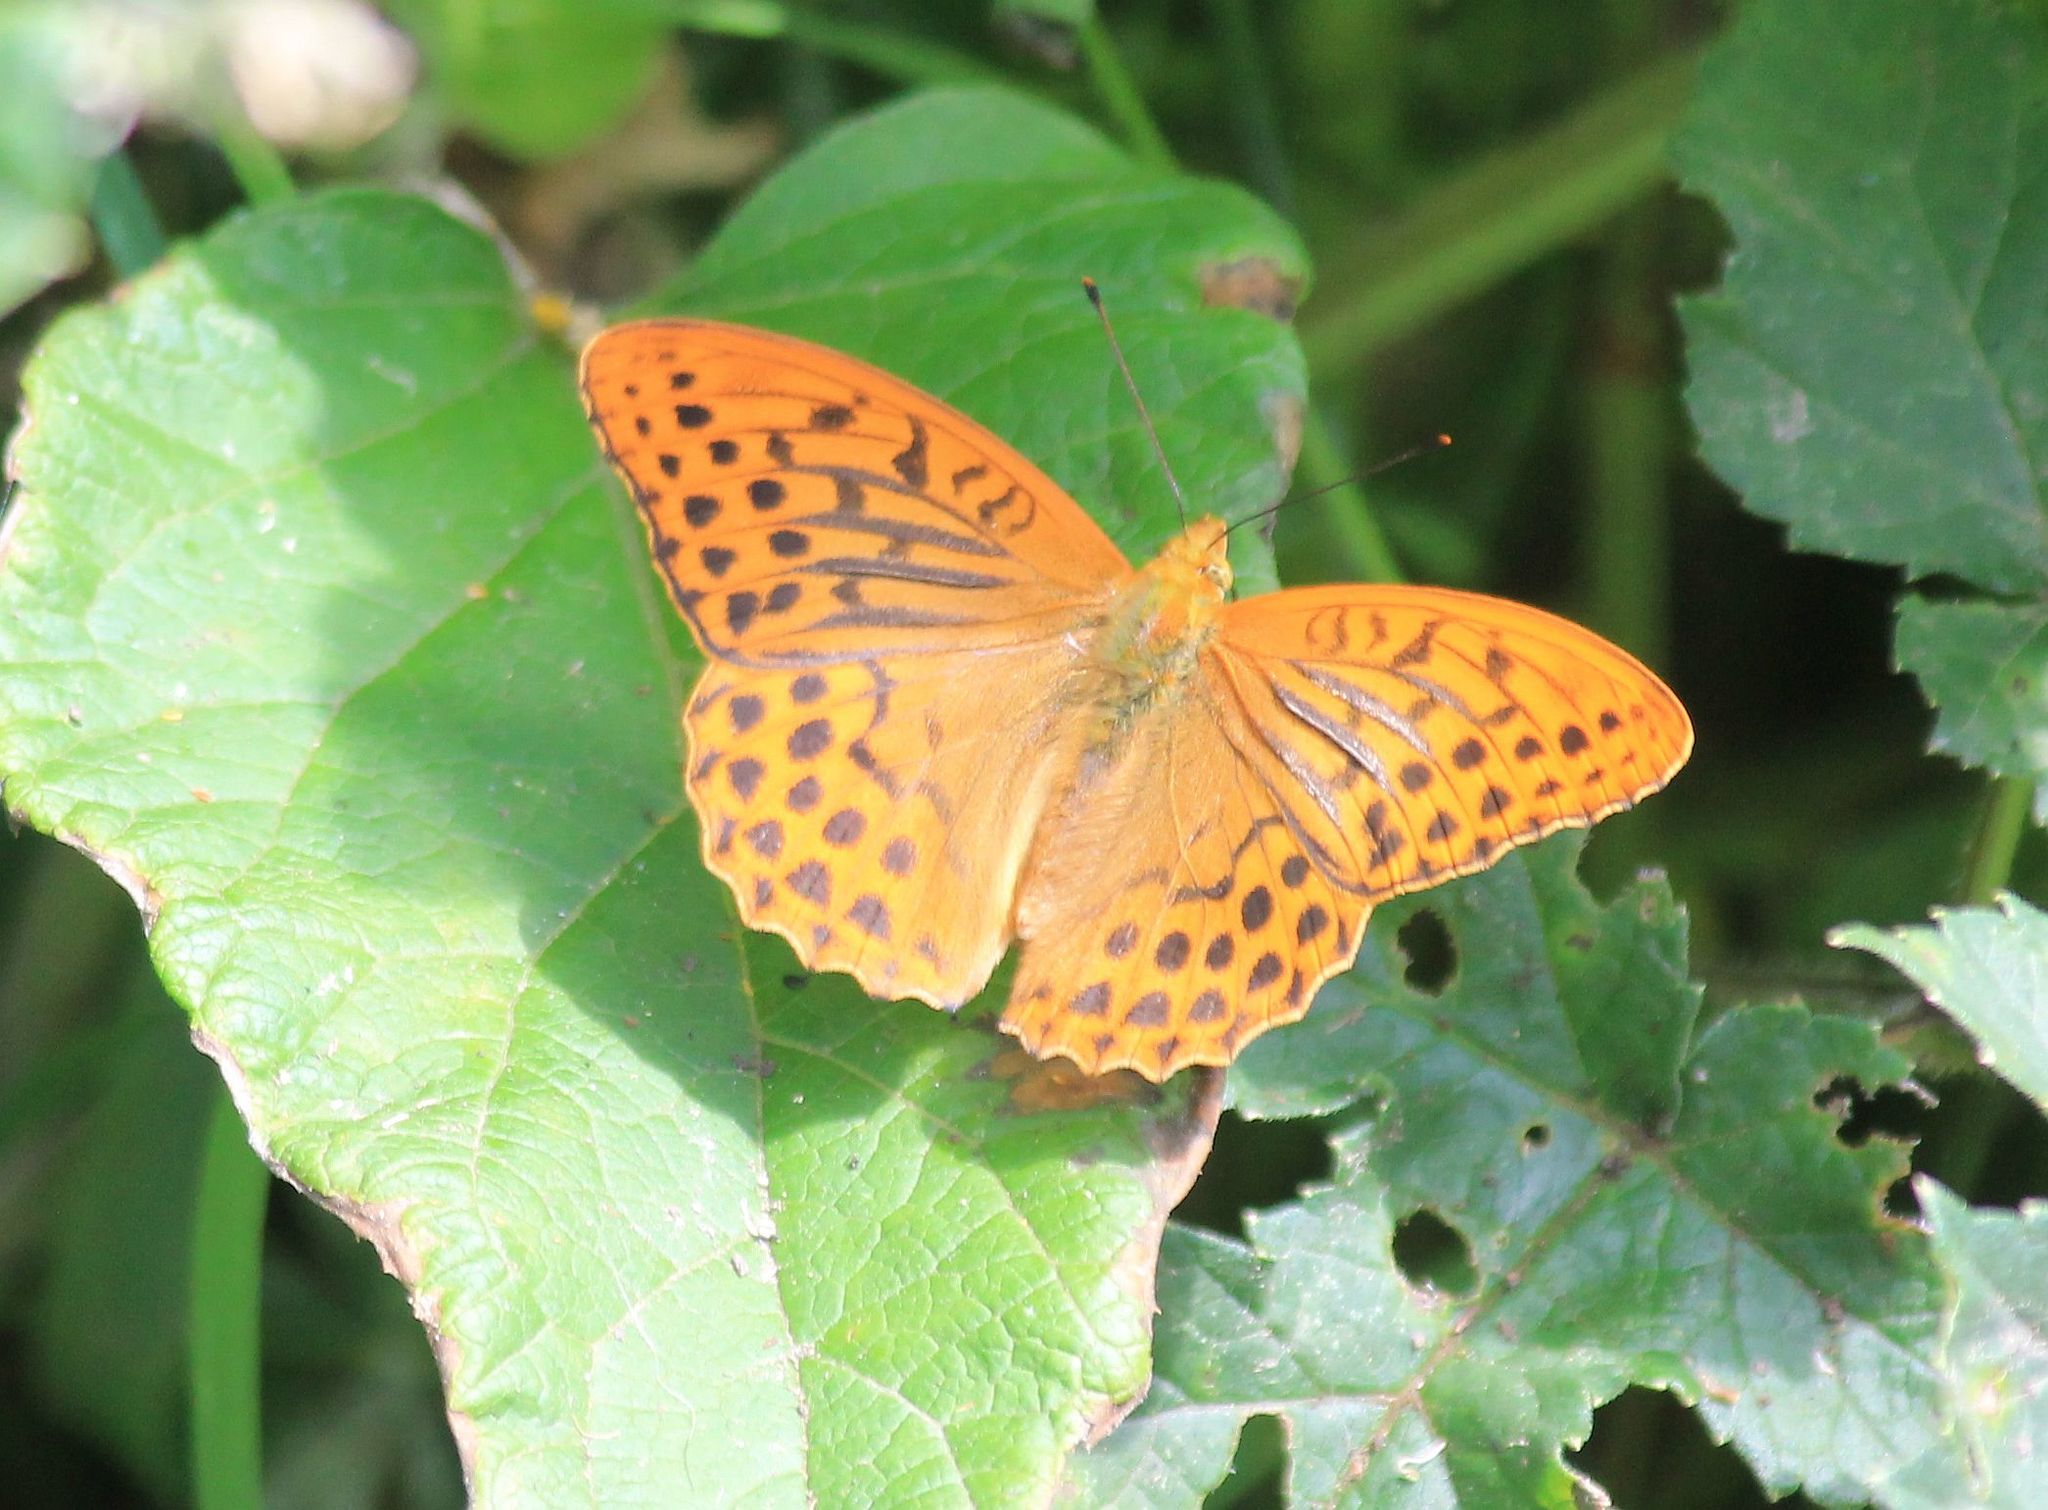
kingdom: Animalia
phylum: Arthropoda
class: Insecta
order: Lepidoptera
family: Nymphalidae
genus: Argynnis
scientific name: Argynnis paphia
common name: Silver-washed fritillary
